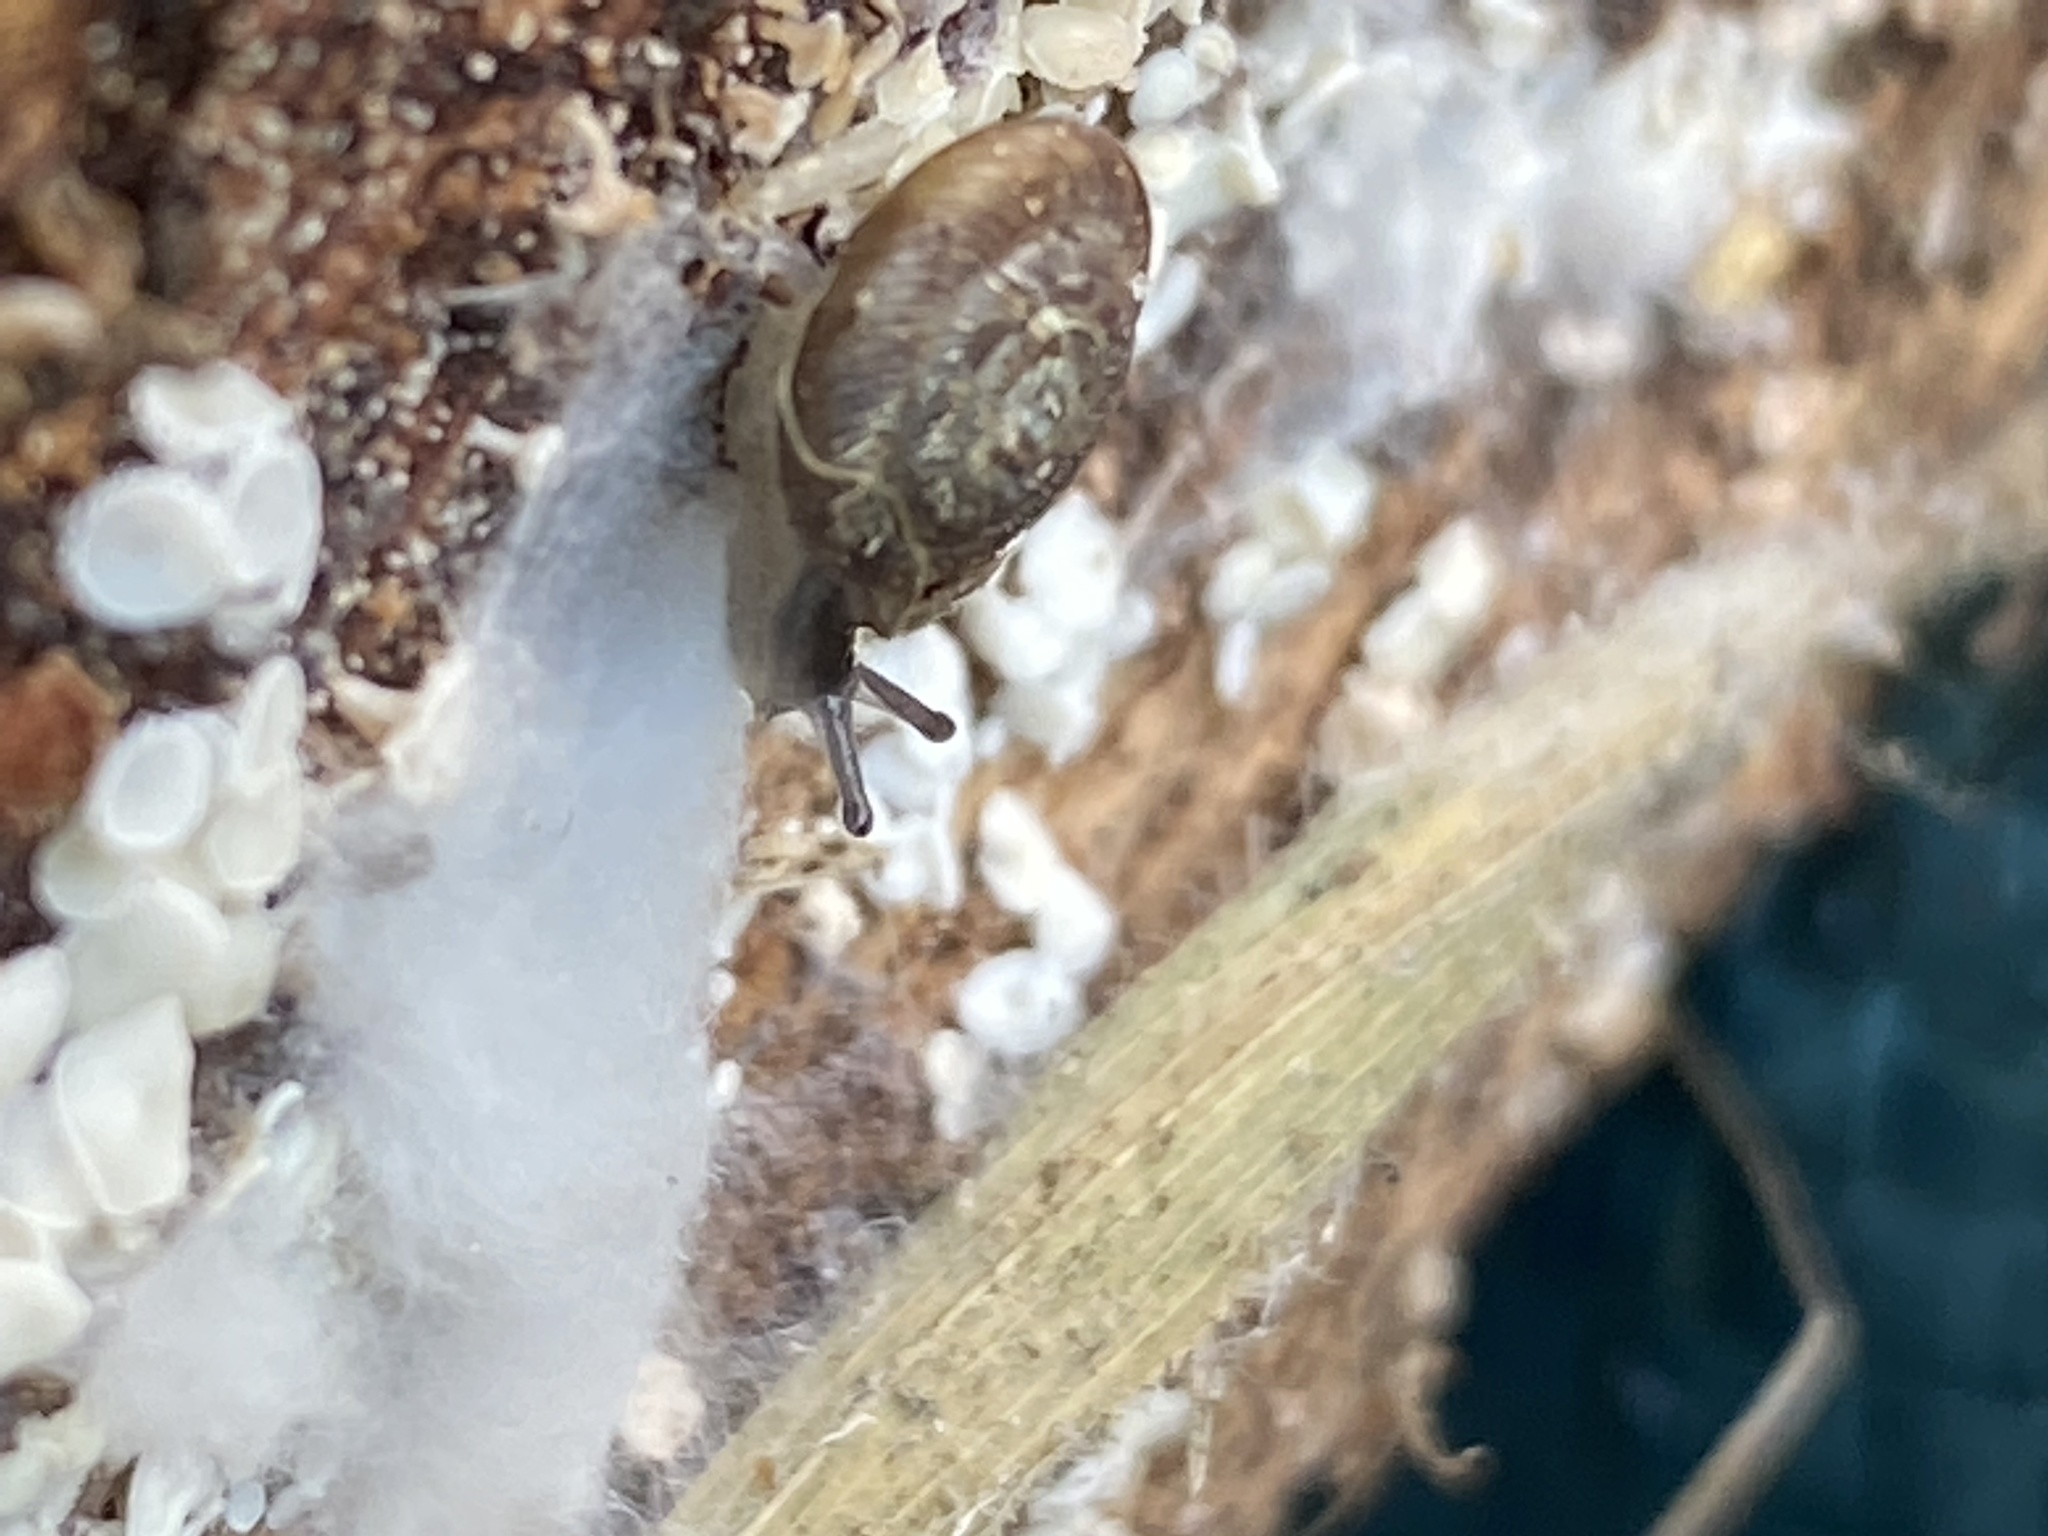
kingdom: Animalia
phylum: Mollusca
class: Gastropoda
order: Stylommatophora
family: Discidae
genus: Discus
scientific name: Discus rotundatus
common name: Rounded snail
